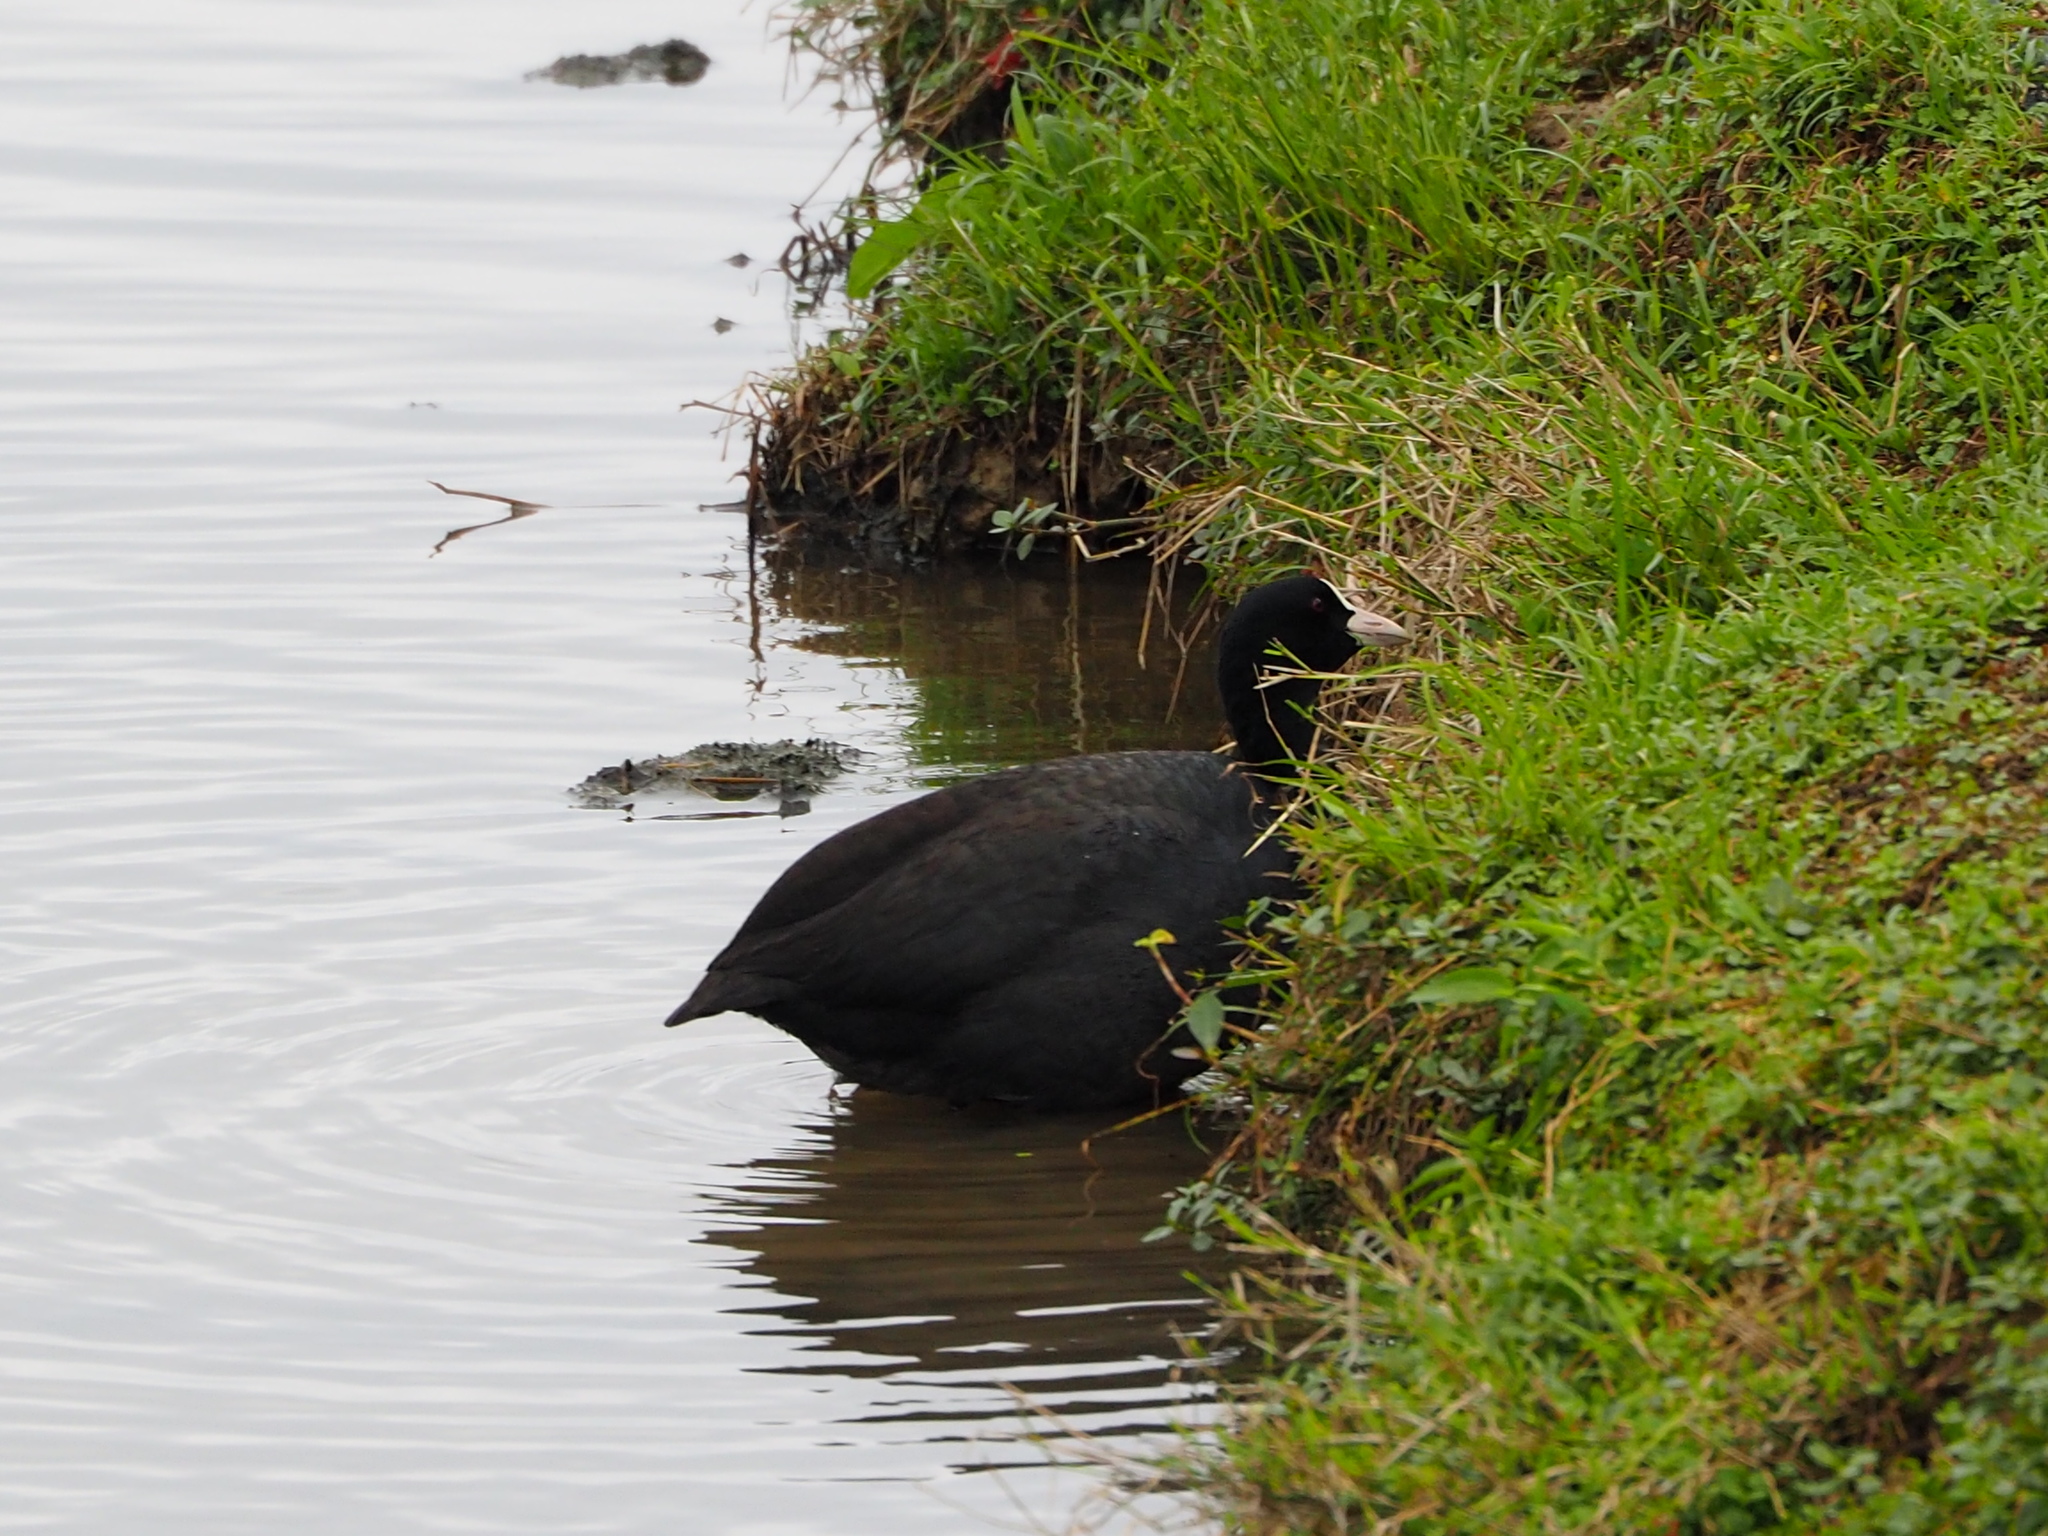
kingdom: Animalia
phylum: Chordata
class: Aves
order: Gruiformes
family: Rallidae
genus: Fulica
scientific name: Fulica atra
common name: Eurasian coot
